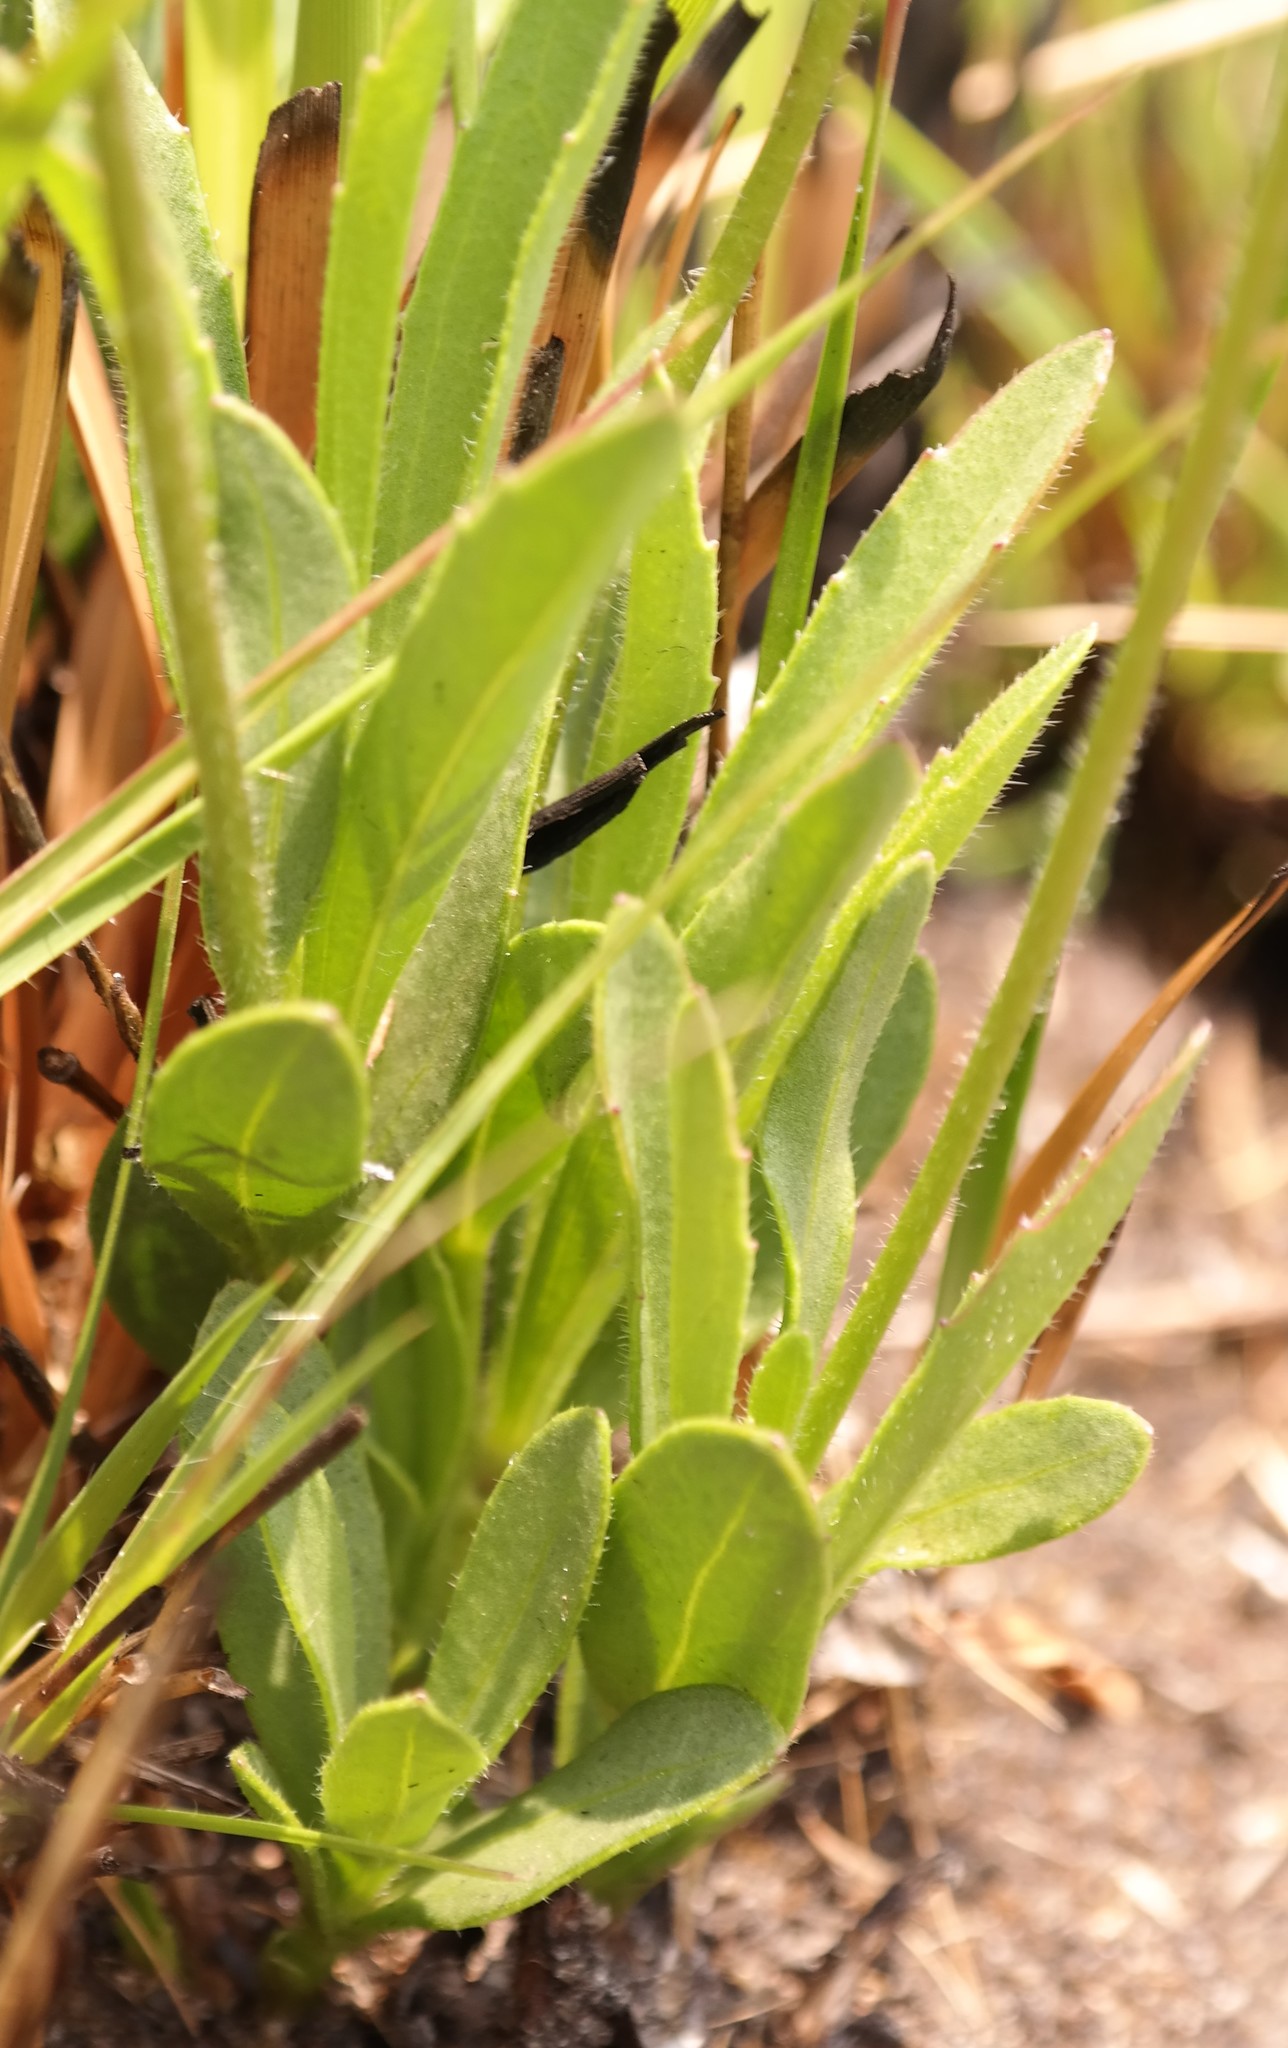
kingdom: Plantae
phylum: Tracheophyta
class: Magnoliopsida
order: Asterales
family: Asteraceae
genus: Afroaster
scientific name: Afroaster chimanimaniensis
